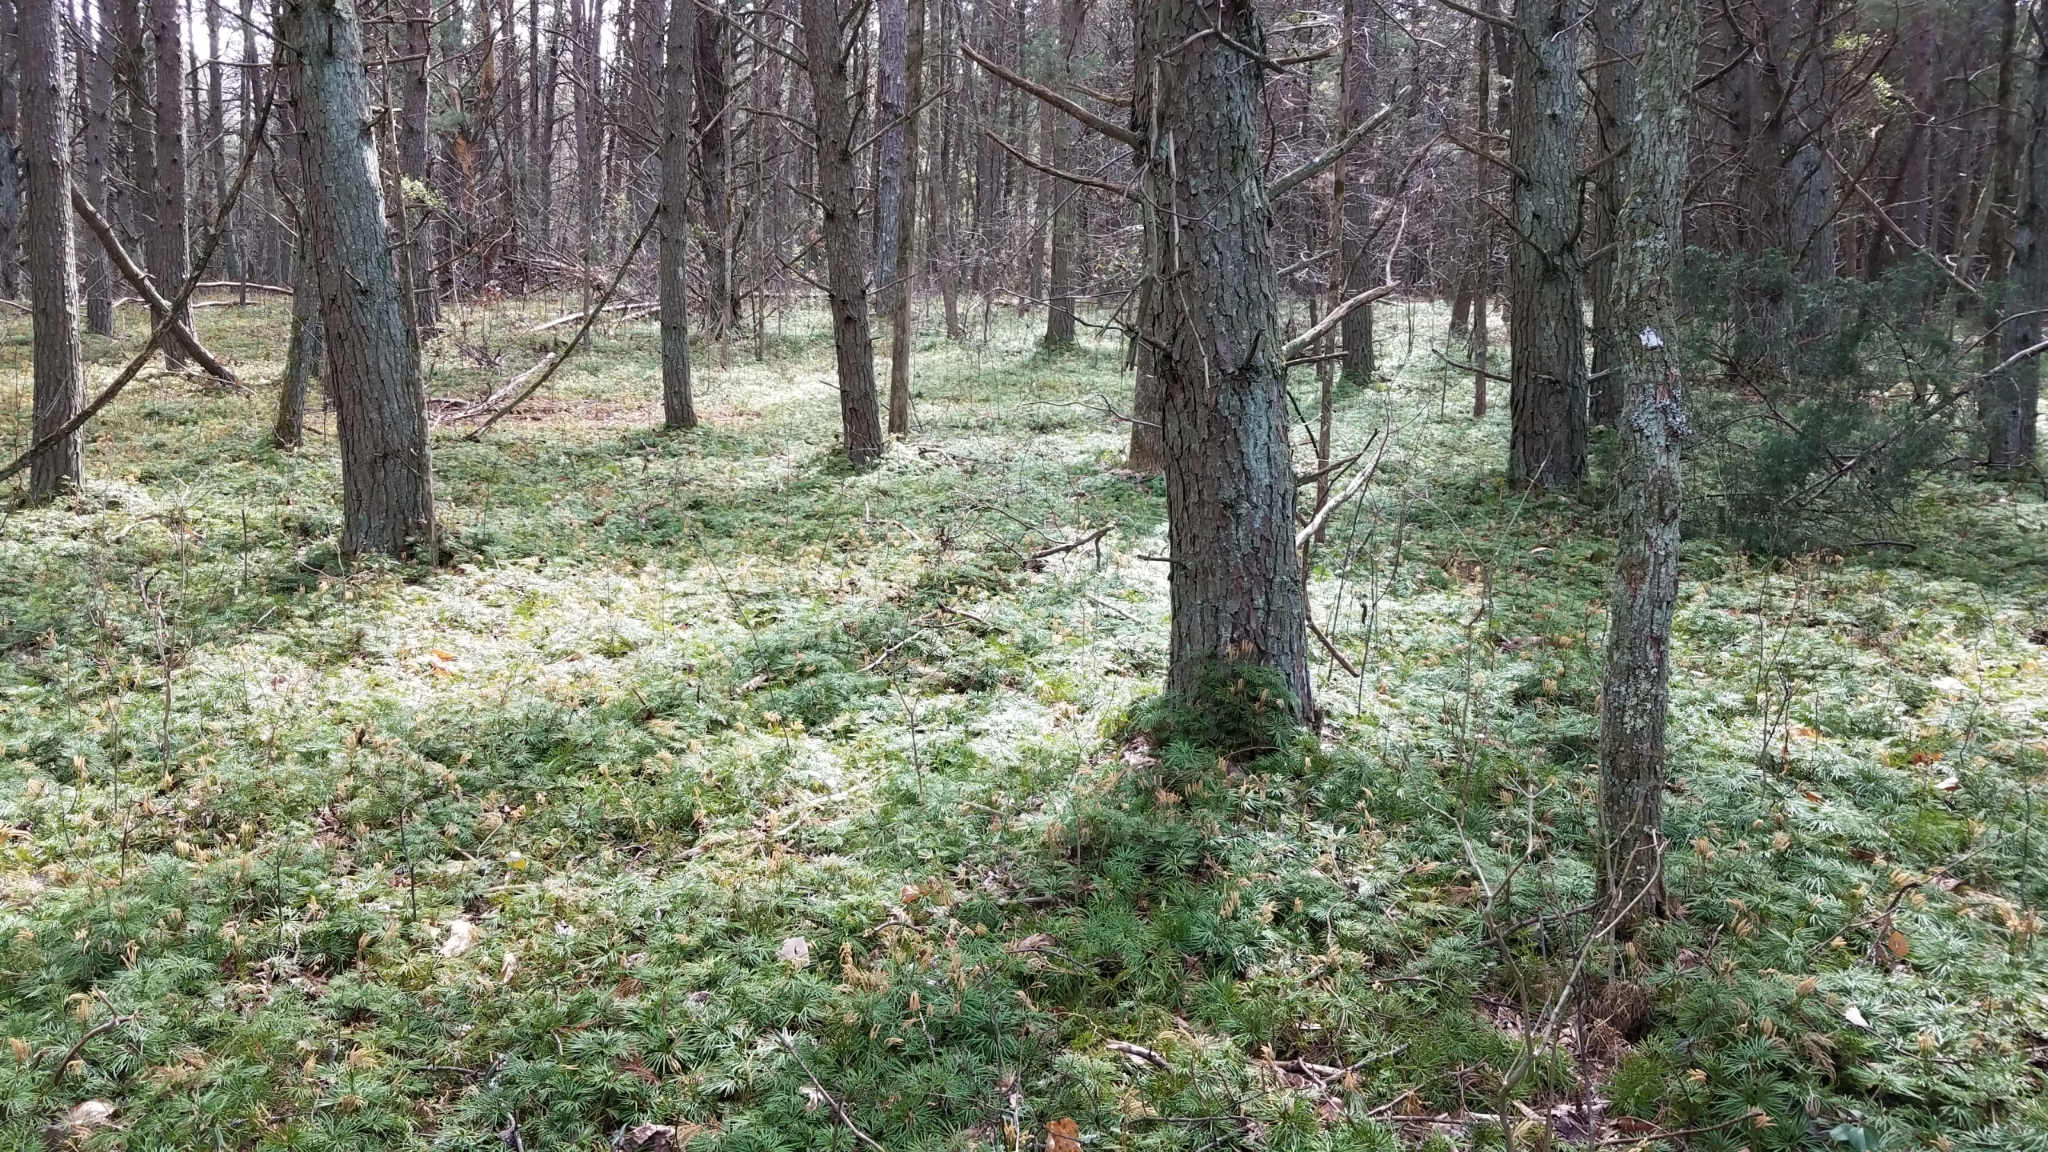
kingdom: Plantae
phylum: Tracheophyta
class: Lycopodiopsida
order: Lycopodiales
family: Lycopodiaceae
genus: Diphasiastrum
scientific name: Diphasiastrum digitatum
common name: Southern running-pine
